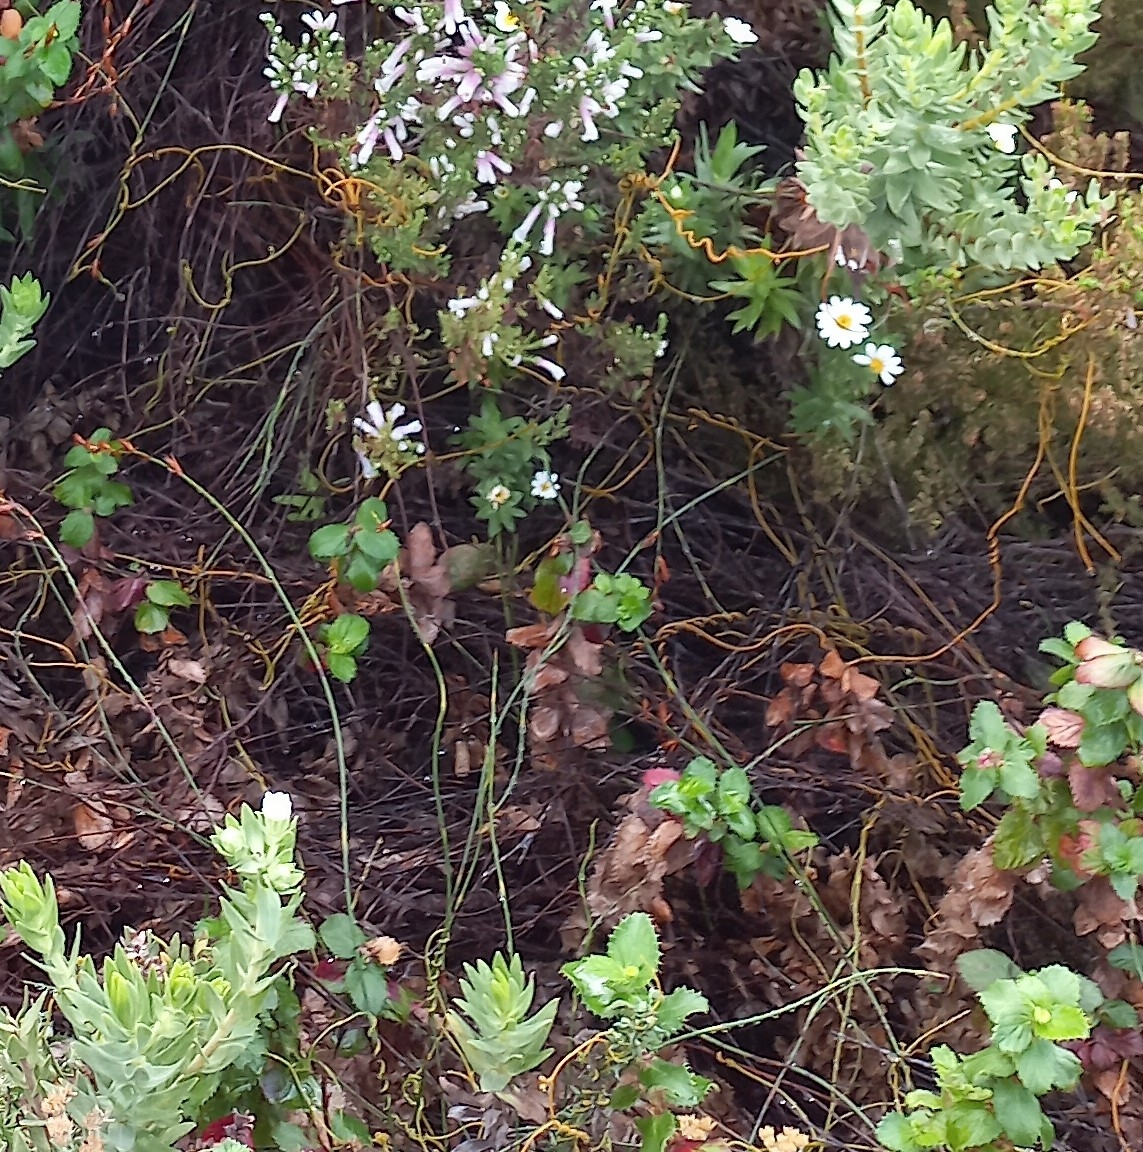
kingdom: Plantae
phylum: Tracheophyta
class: Magnoliopsida
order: Asterales
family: Asteraceae
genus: Osmitopsis
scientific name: Osmitopsis asteriscoides
